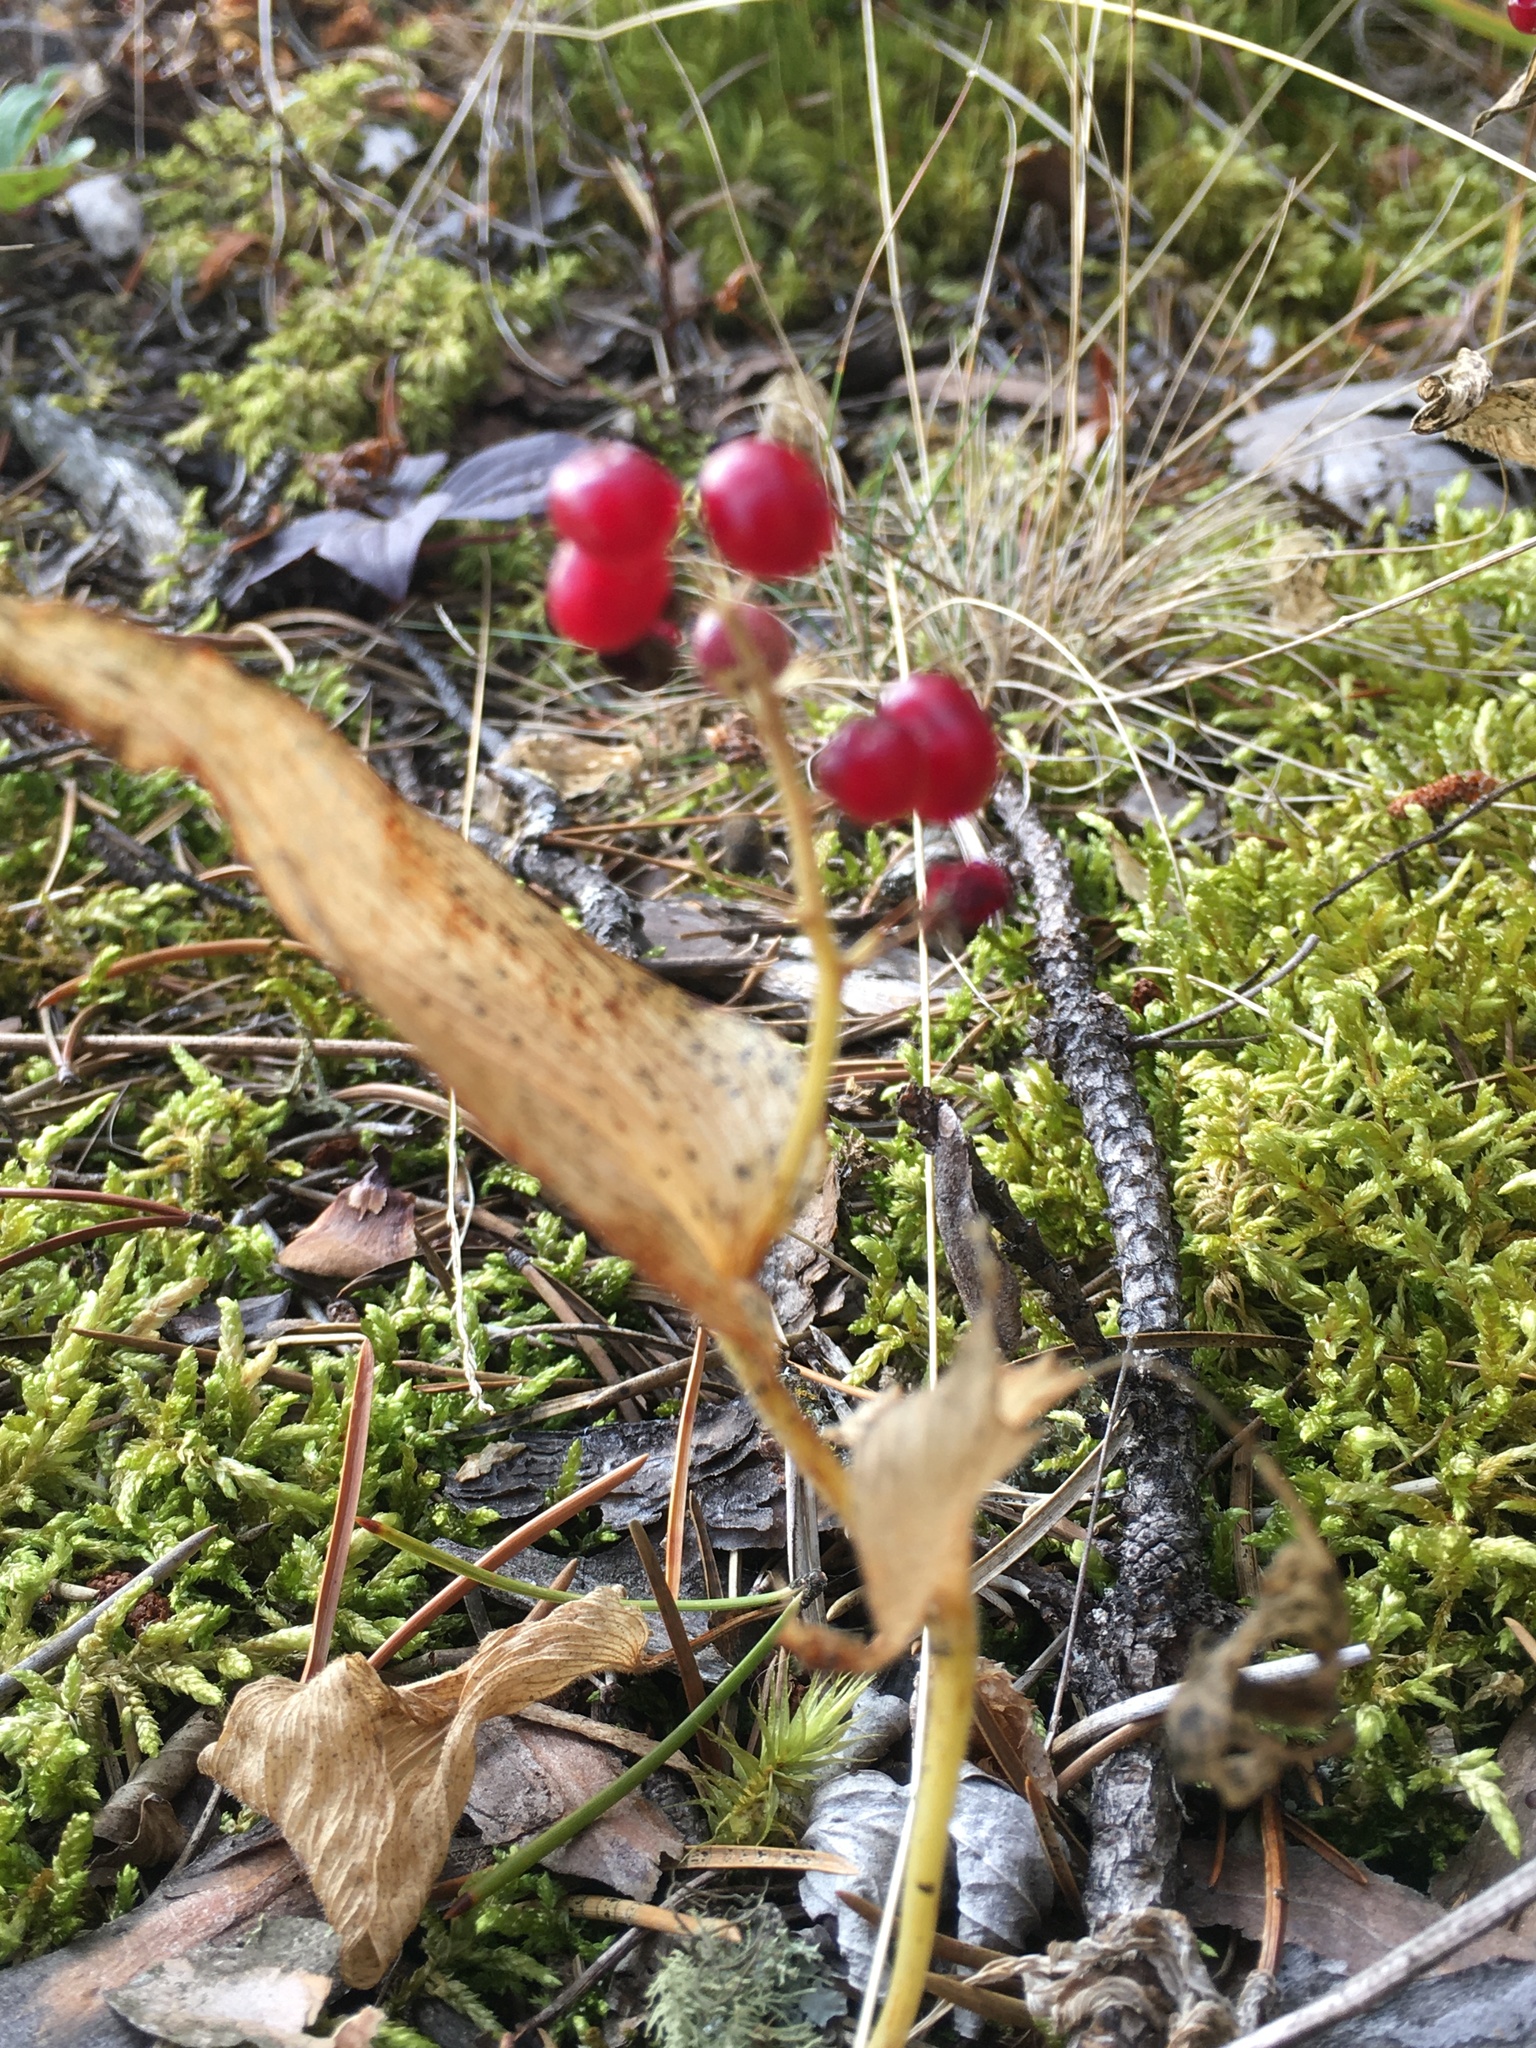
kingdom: Plantae
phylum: Tracheophyta
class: Liliopsida
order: Asparagales
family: Asparagaceae
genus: Maianthemum
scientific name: Maianthemum canadense
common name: False lily-of-the-valley
